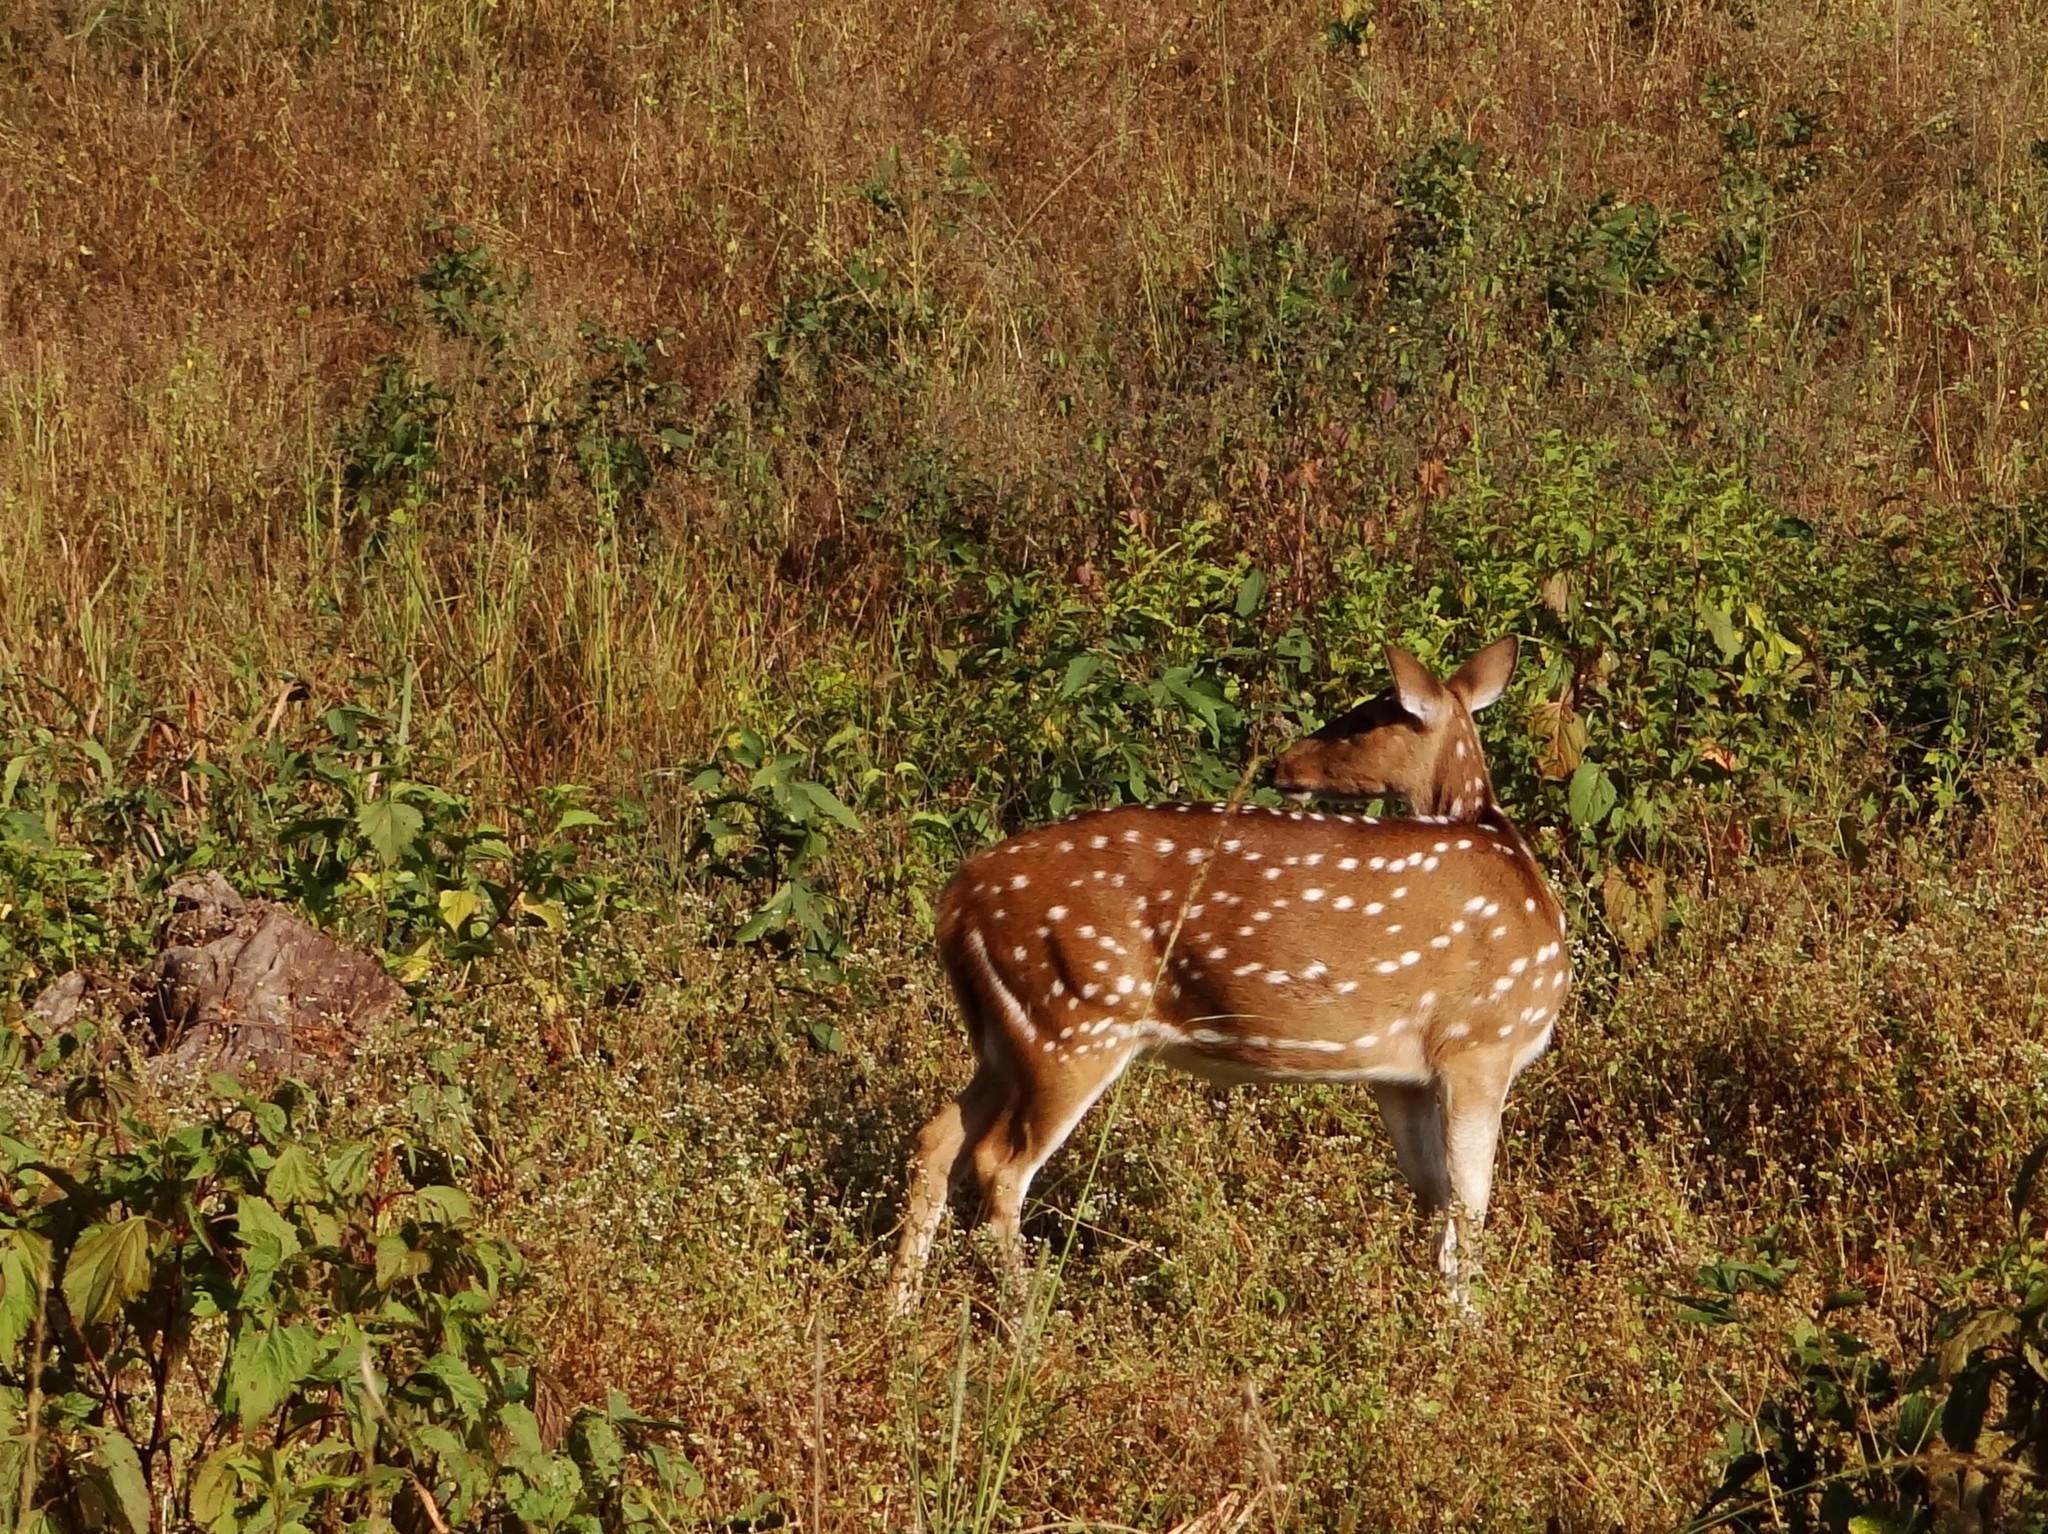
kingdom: Animalia
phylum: Chordata
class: Mammalia
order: Artiodactyla
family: Cervidae
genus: Axis
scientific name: Axis axis
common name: Chital
